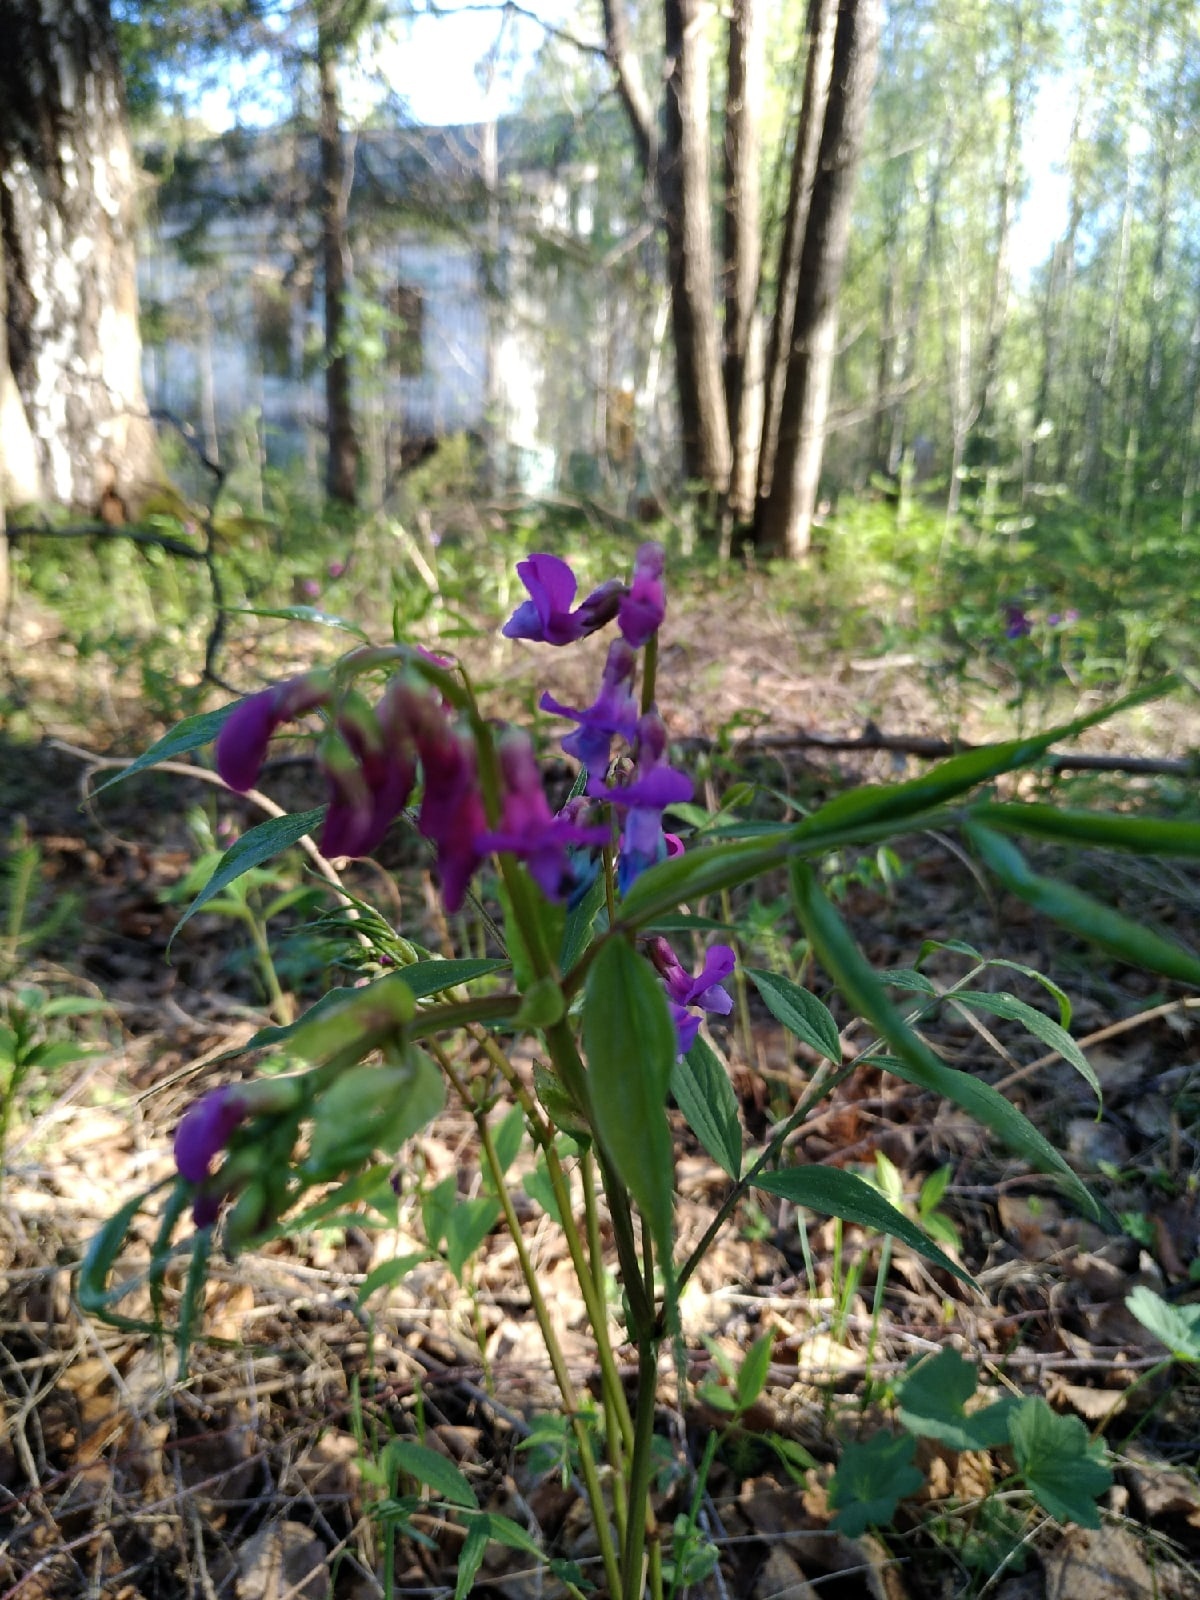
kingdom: Plantae
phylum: Tracheophyta
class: Magnoliopsida
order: Fabales
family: Fabaceae
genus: Lathyrus
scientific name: Lathyrus vernus
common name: Spring pea
